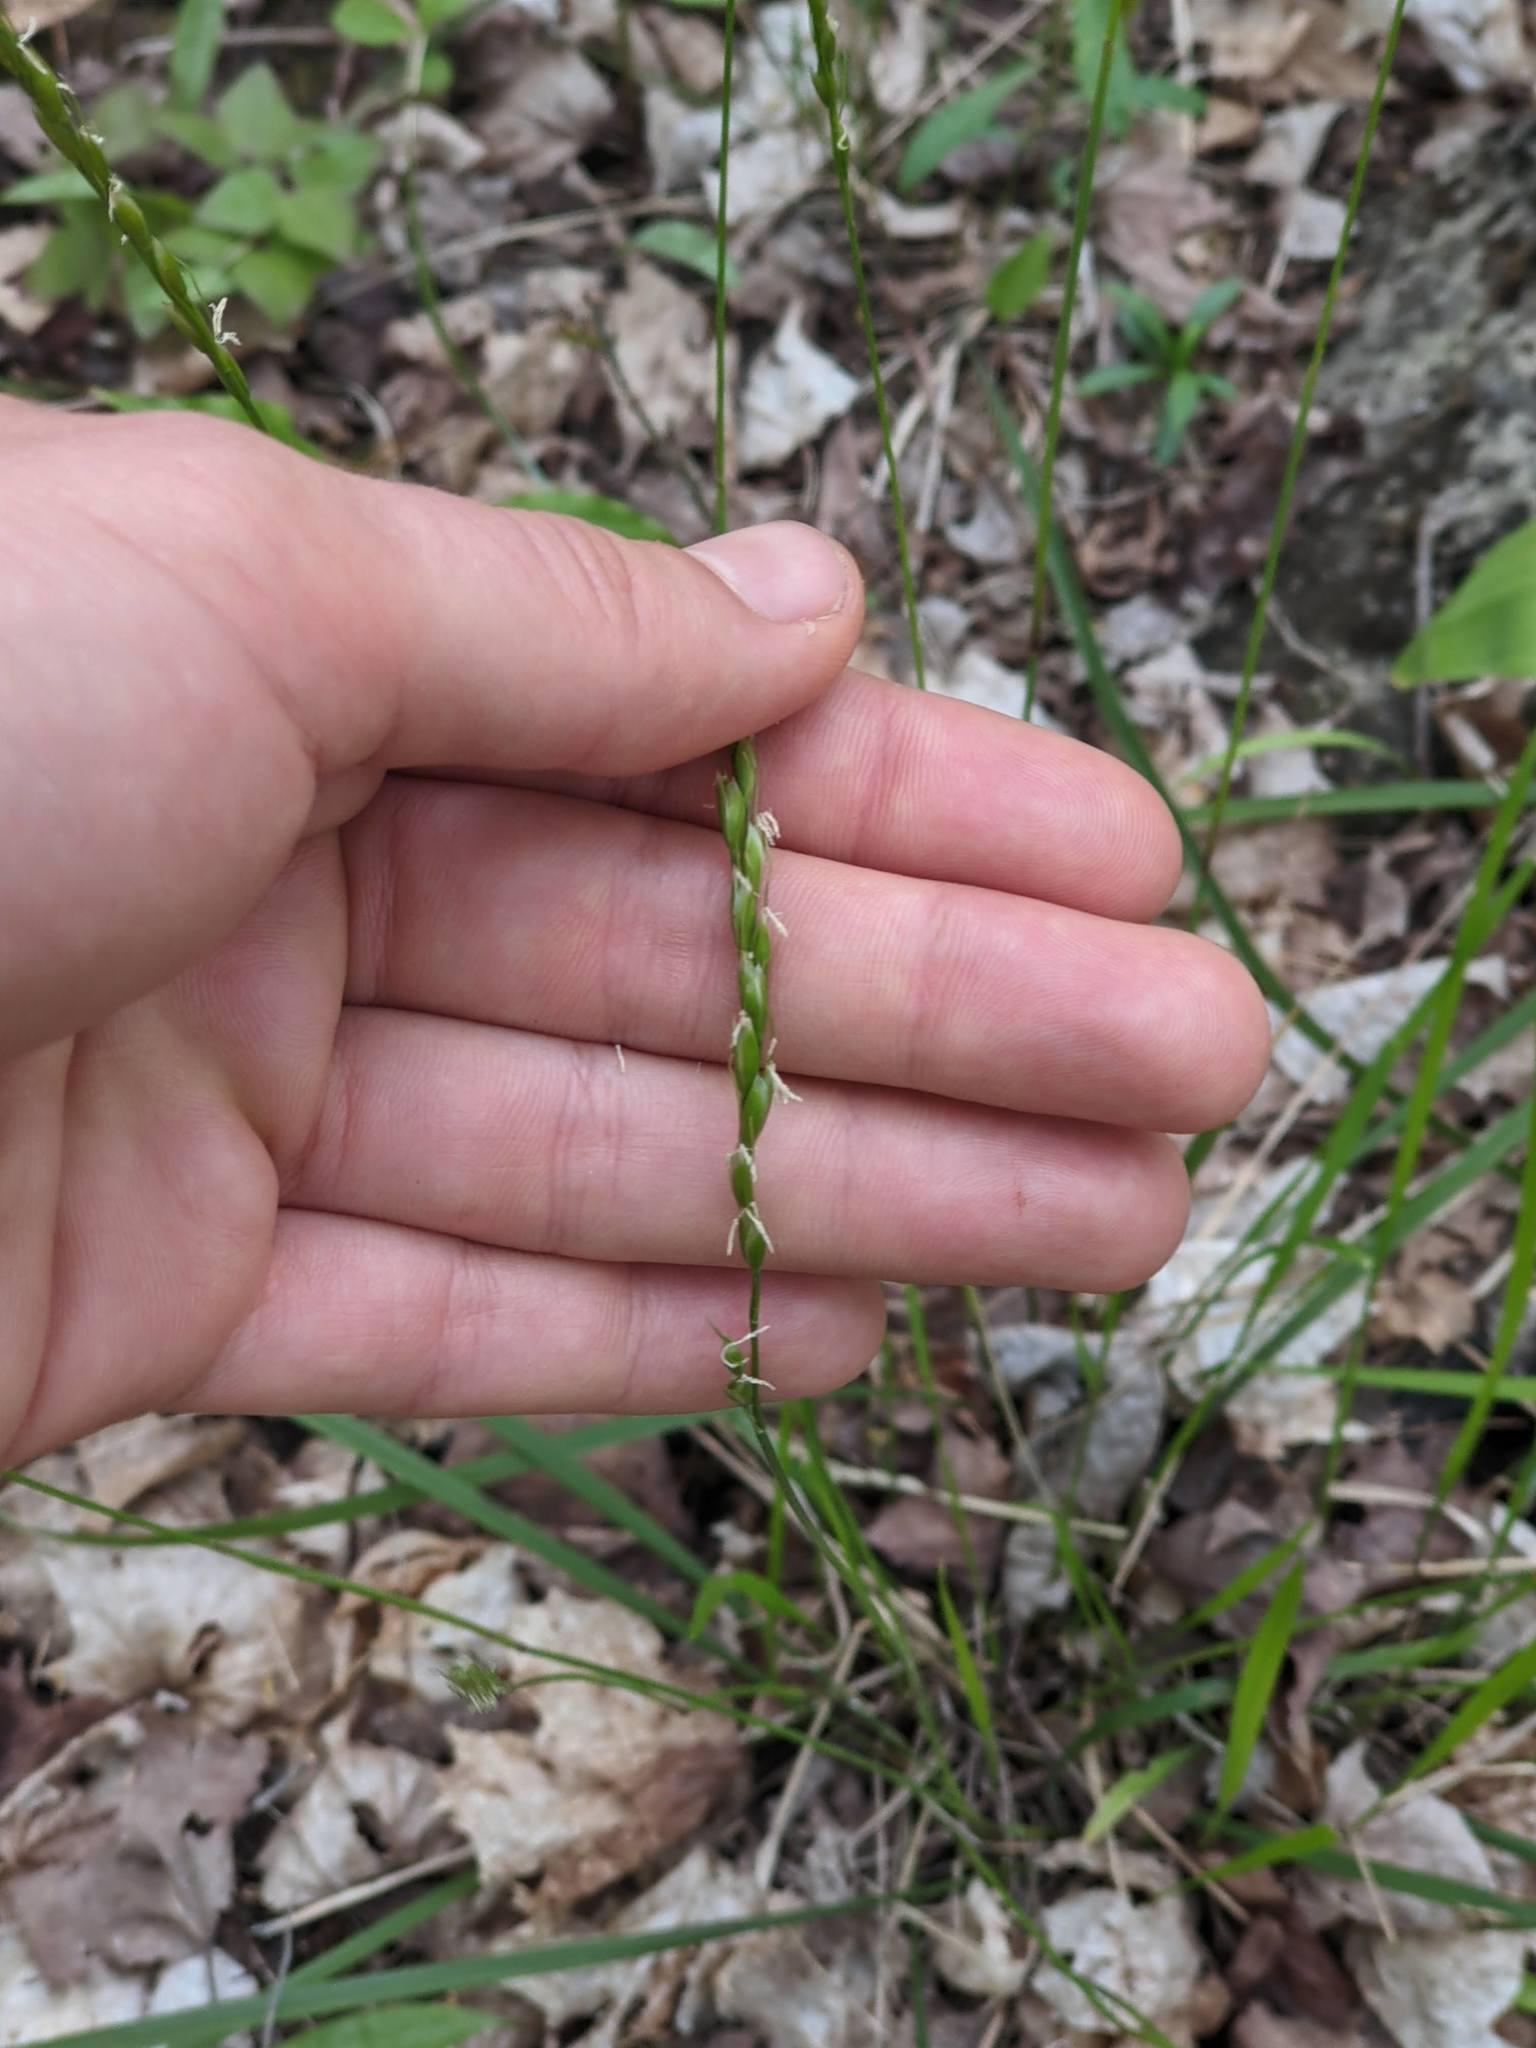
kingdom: Plantae
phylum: Tracheophyta
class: Liliopsida
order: Poales
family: Poaceae
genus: Oryzopsis
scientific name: Oryzopsis asperifolia
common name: Rough-leaved mountain rice
